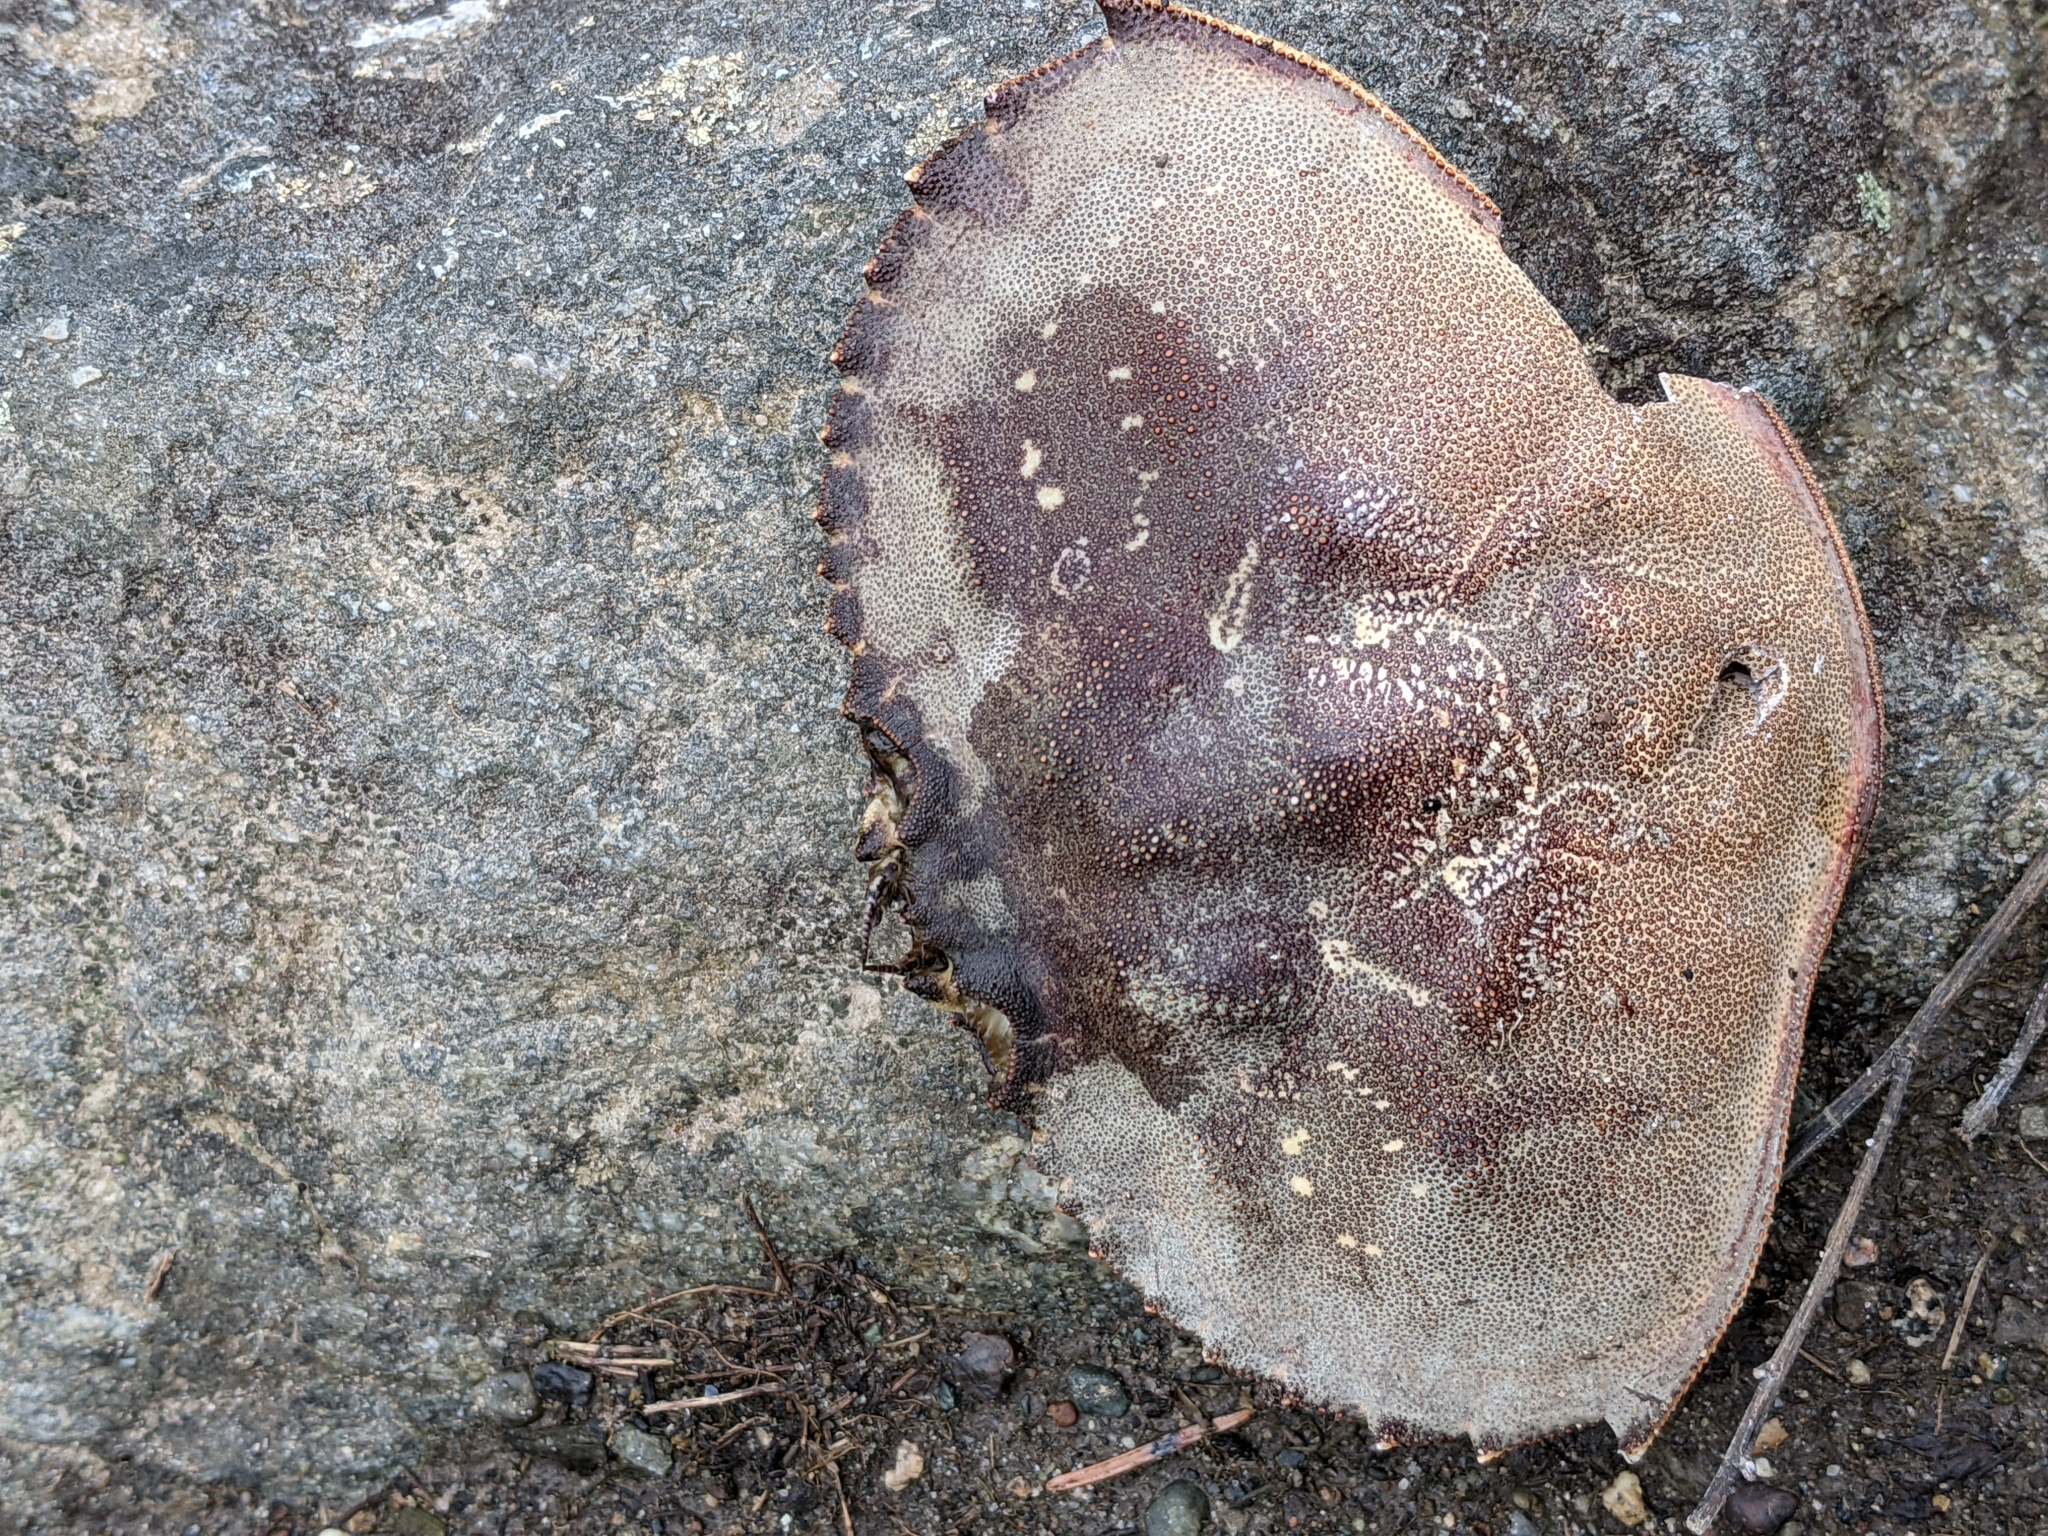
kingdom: Animalia
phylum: Arthropoda
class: Malacostraca
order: Decapoda
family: Cancridae
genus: Metacarcinus
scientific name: Metacarcinus magister
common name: Californian crab
